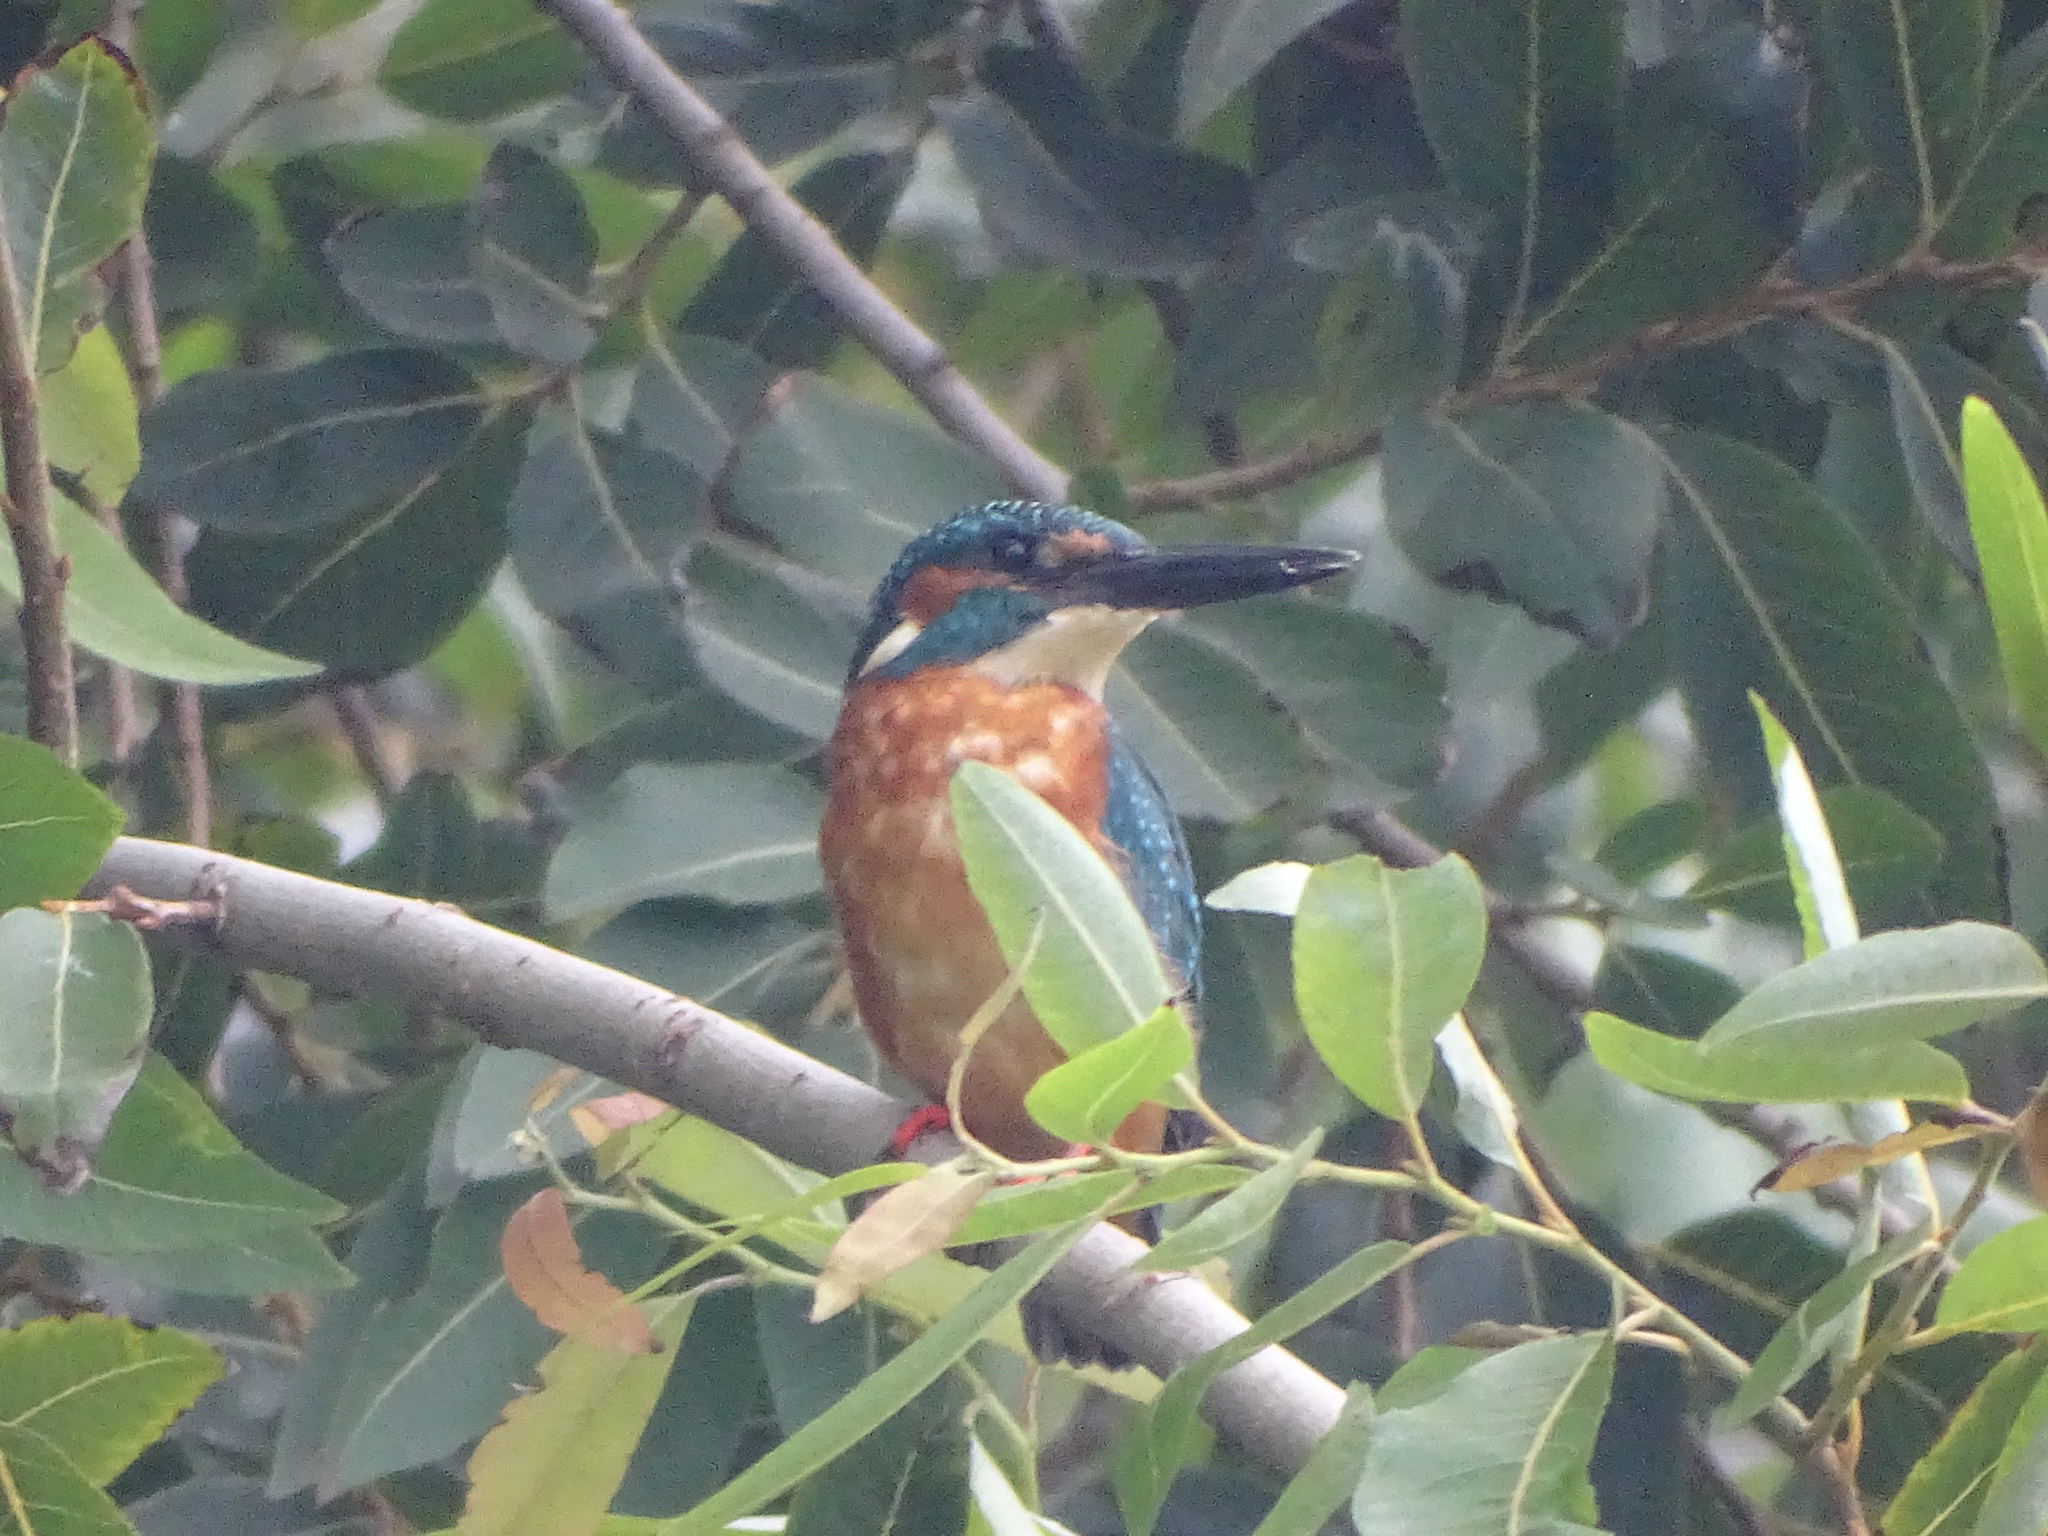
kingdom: Animalia
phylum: Chordata
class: Aves
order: Coraciiformes
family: Alcedinidae
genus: Alcedo
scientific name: Alcedo atthis
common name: Common kingfisher
